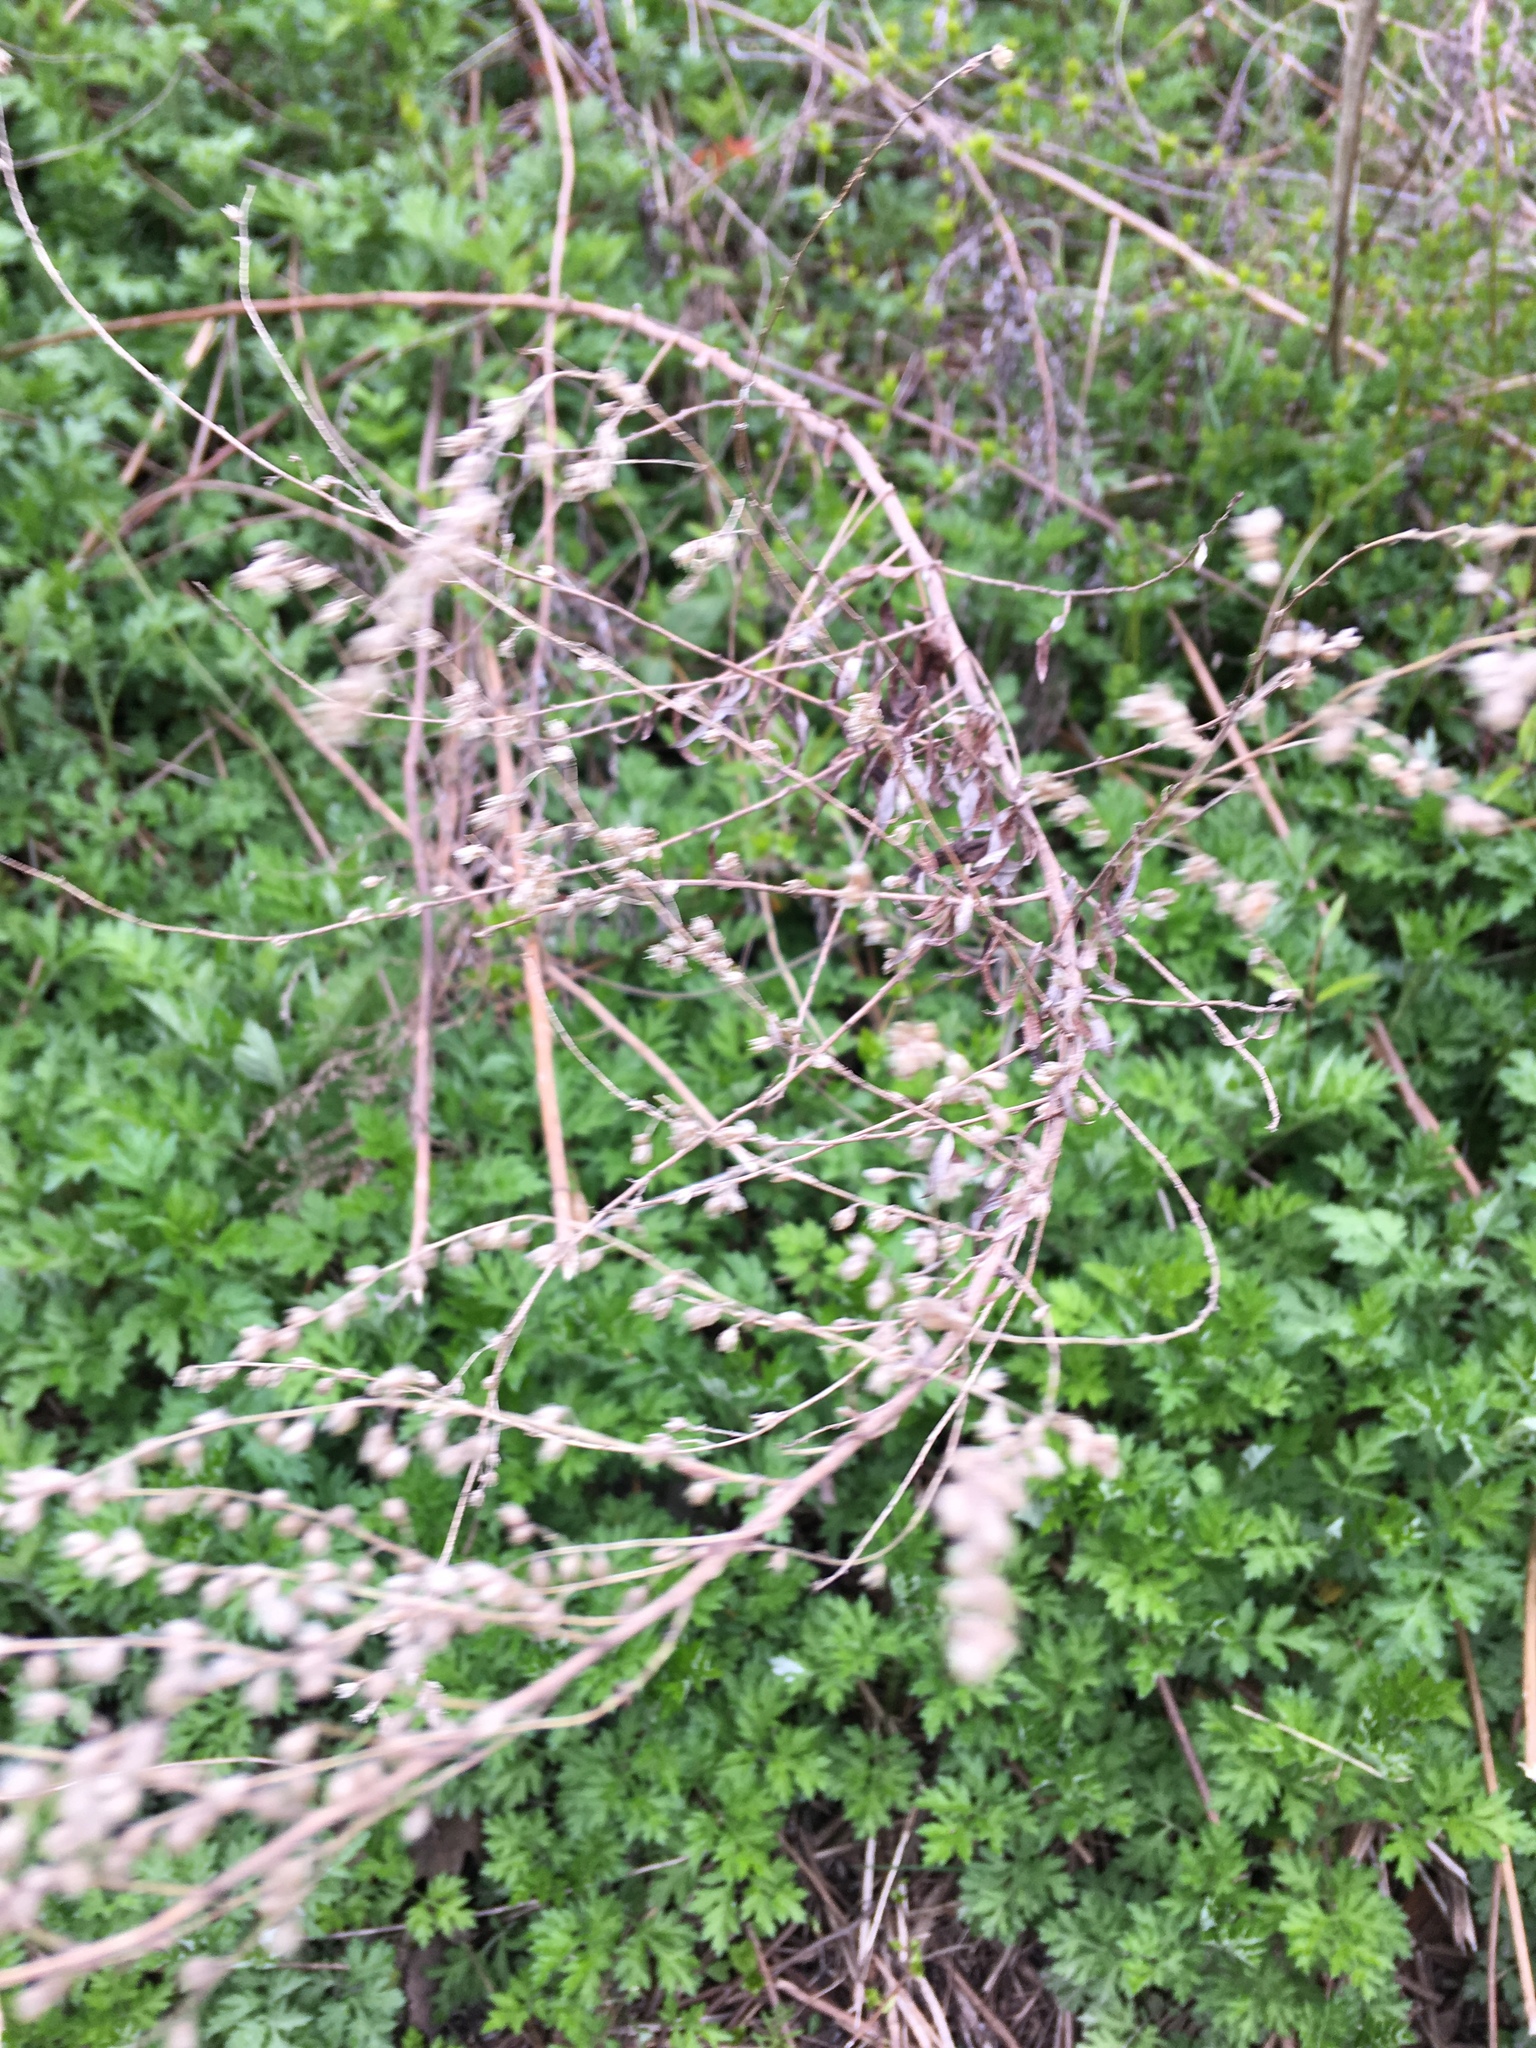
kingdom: Plantae
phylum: Tracheophyta
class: Magnoliopsida
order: Asterales
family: Asteraceae
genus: Artemisia
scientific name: Artemisia vulgaris
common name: Mugwort
